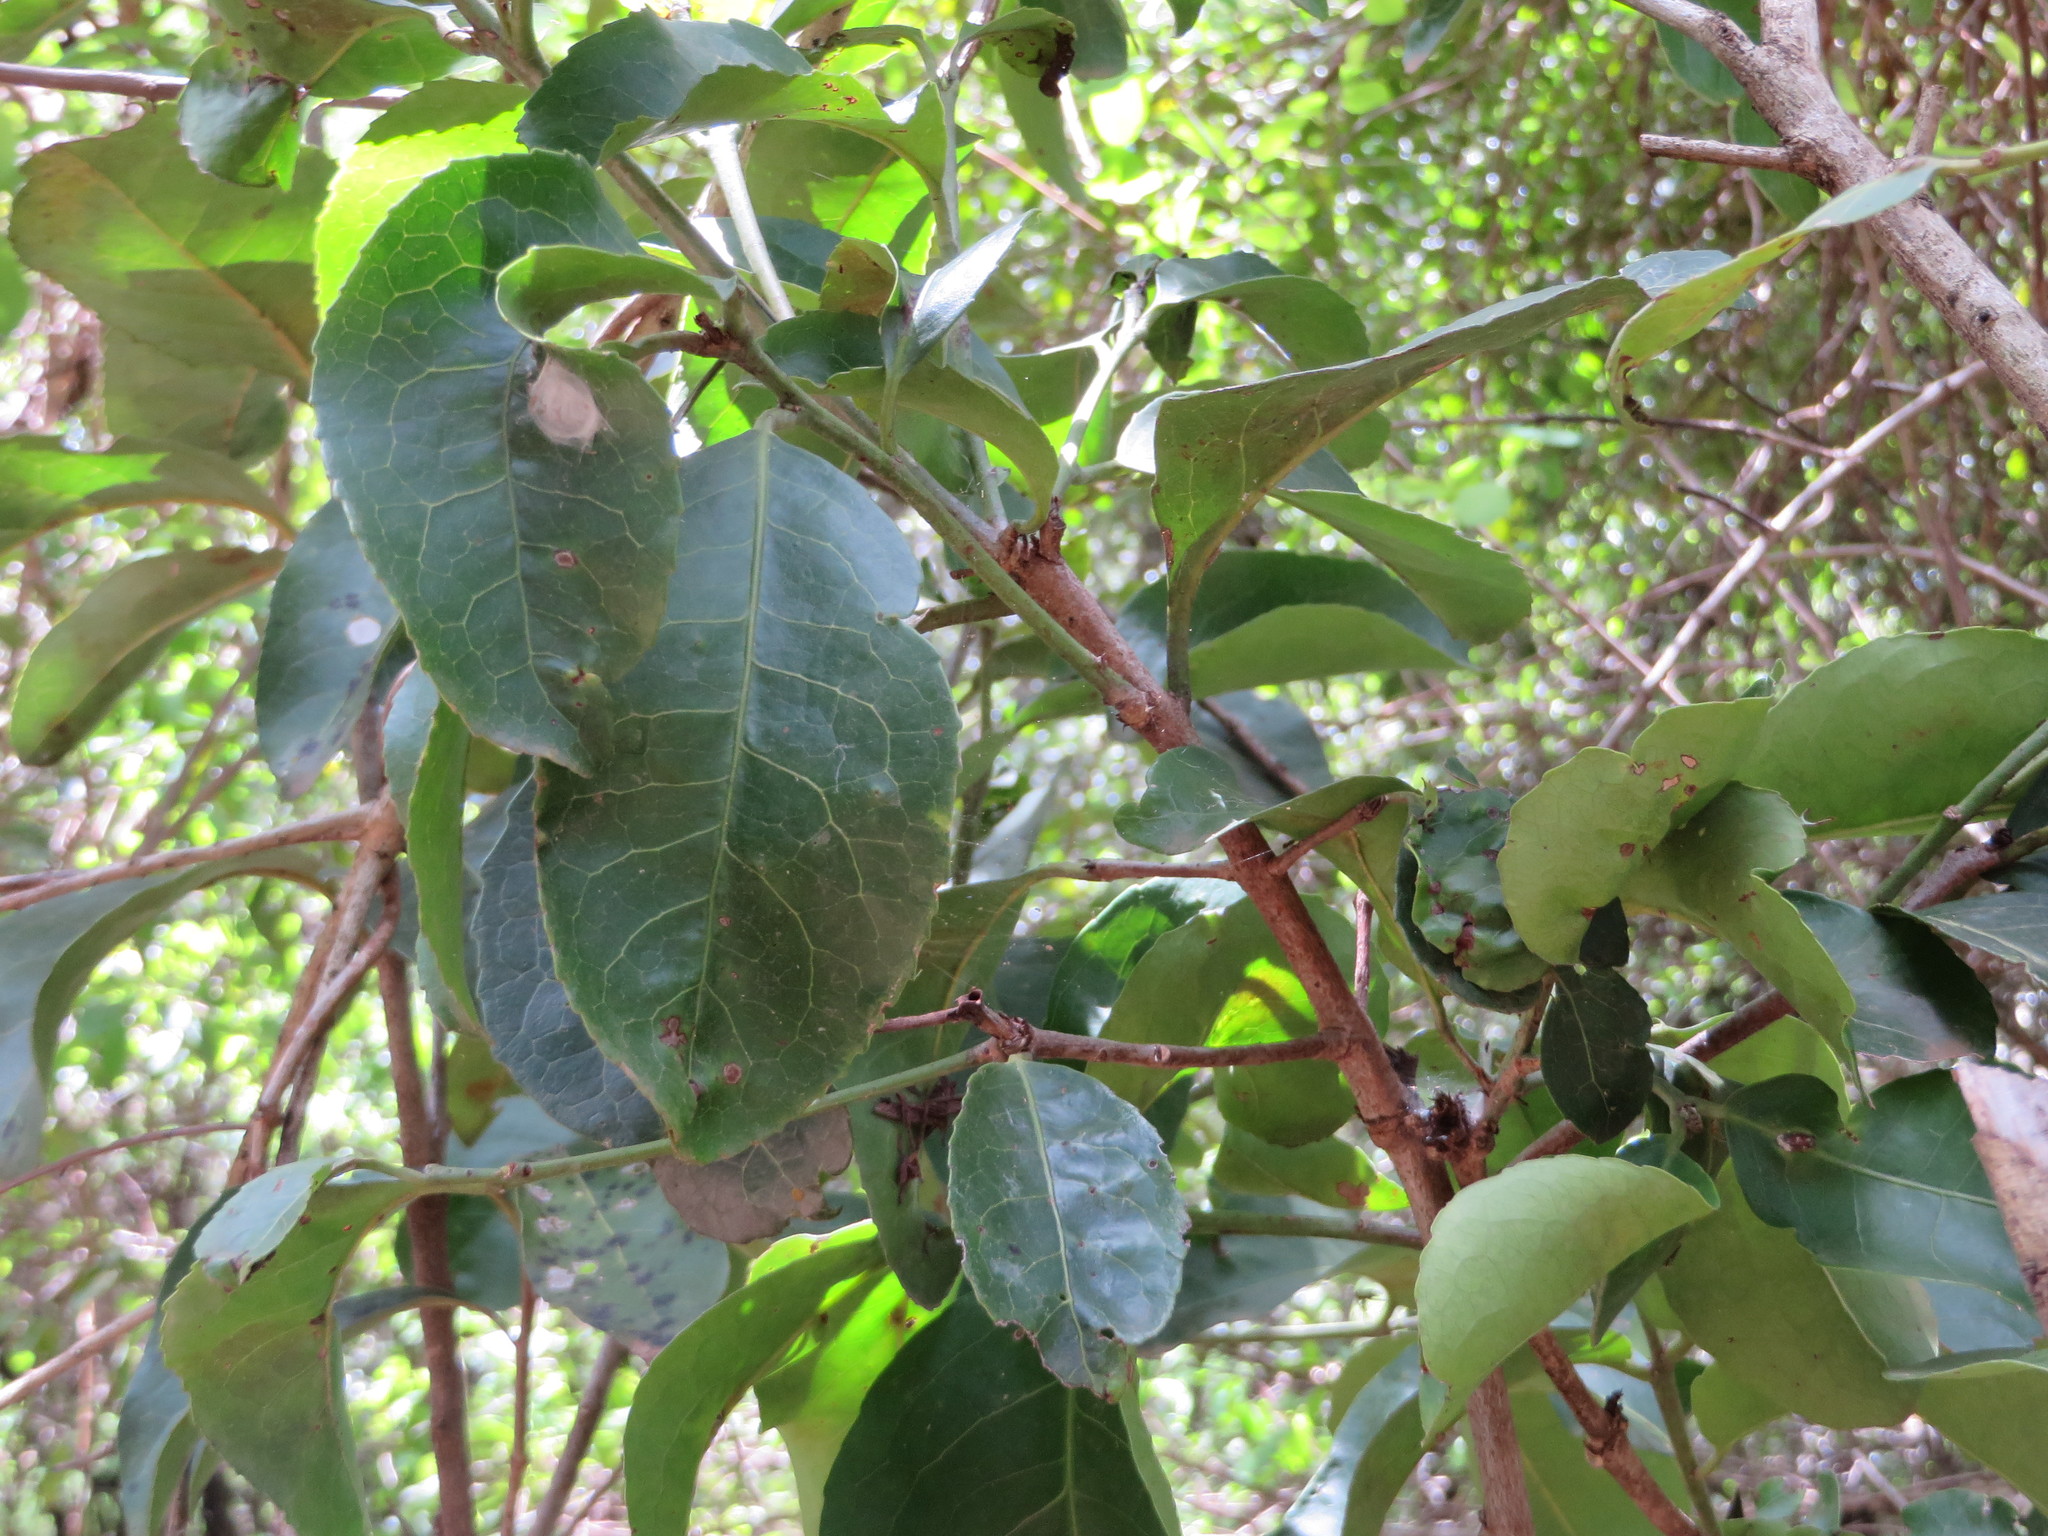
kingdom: Plantae
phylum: Tracheophyta
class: Magnoliopsida
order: Celastrales
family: Celastraceae
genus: Elaeodendron
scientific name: Elaeodendron buchananii
